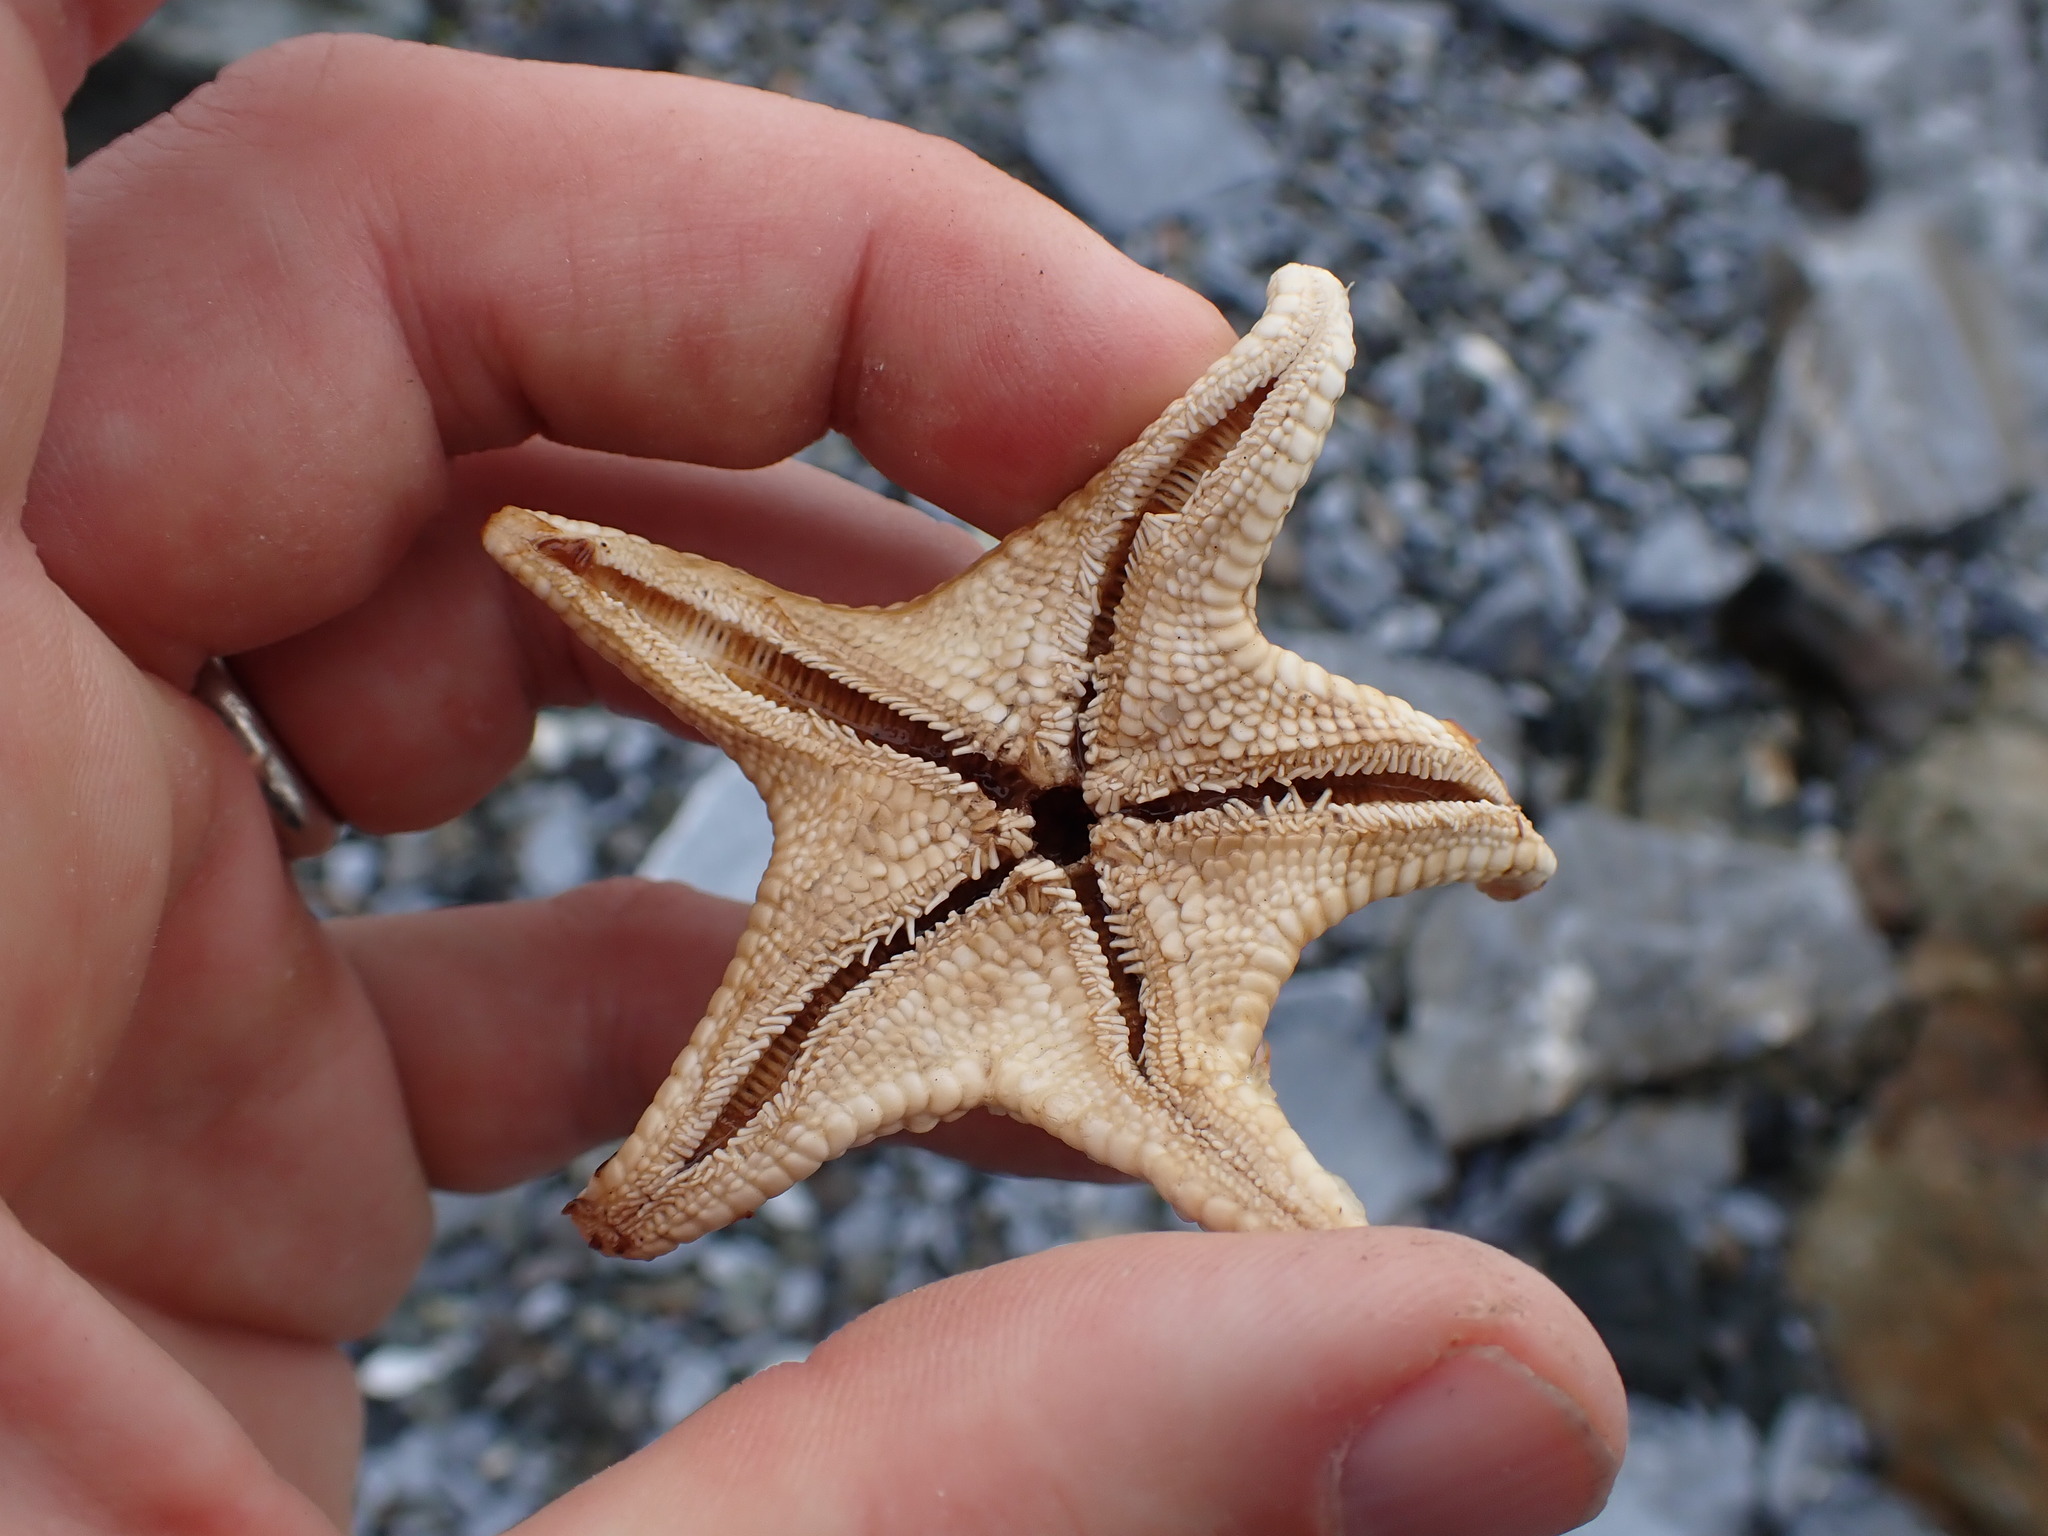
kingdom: Animalia
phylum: Echinodermata
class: Asteroidea
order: Valvatida
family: Asteropseidae
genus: Dermasterias
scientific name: Dermasterias imbricata
